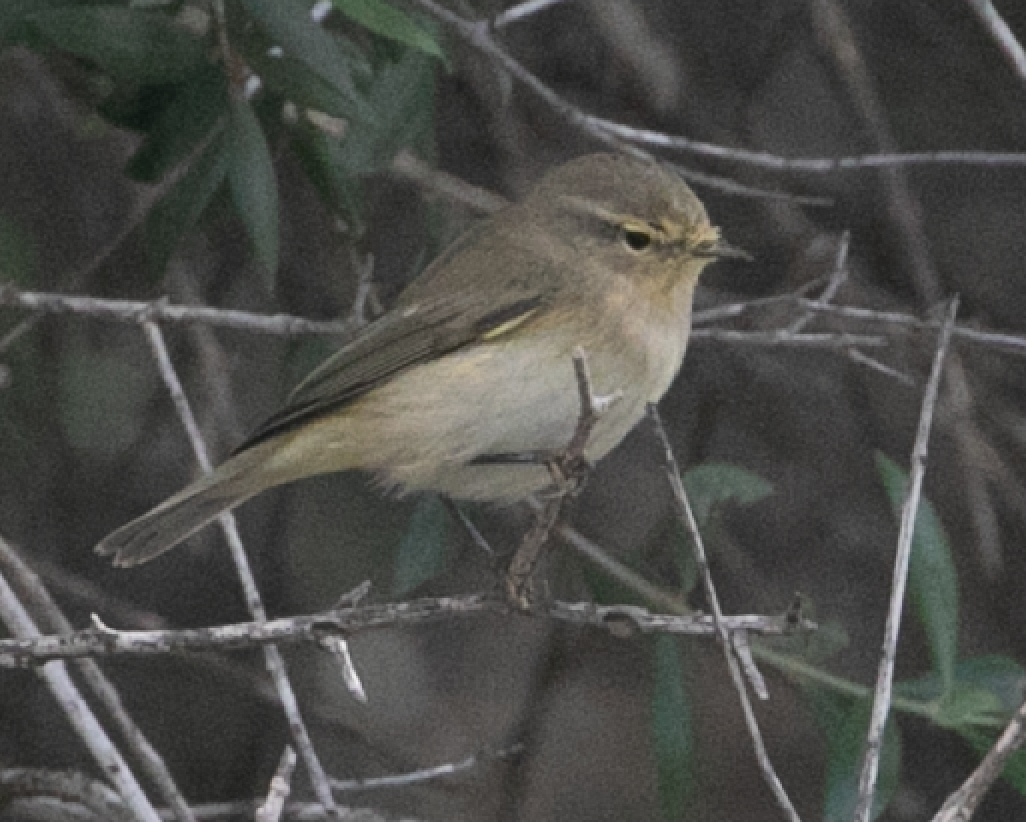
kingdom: Animalia
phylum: Chordata
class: Aves
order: Passeriformes
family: Phylloscopidae
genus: Phylloscopus
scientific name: Phylloscopus collybita
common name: Common chiffchaff
